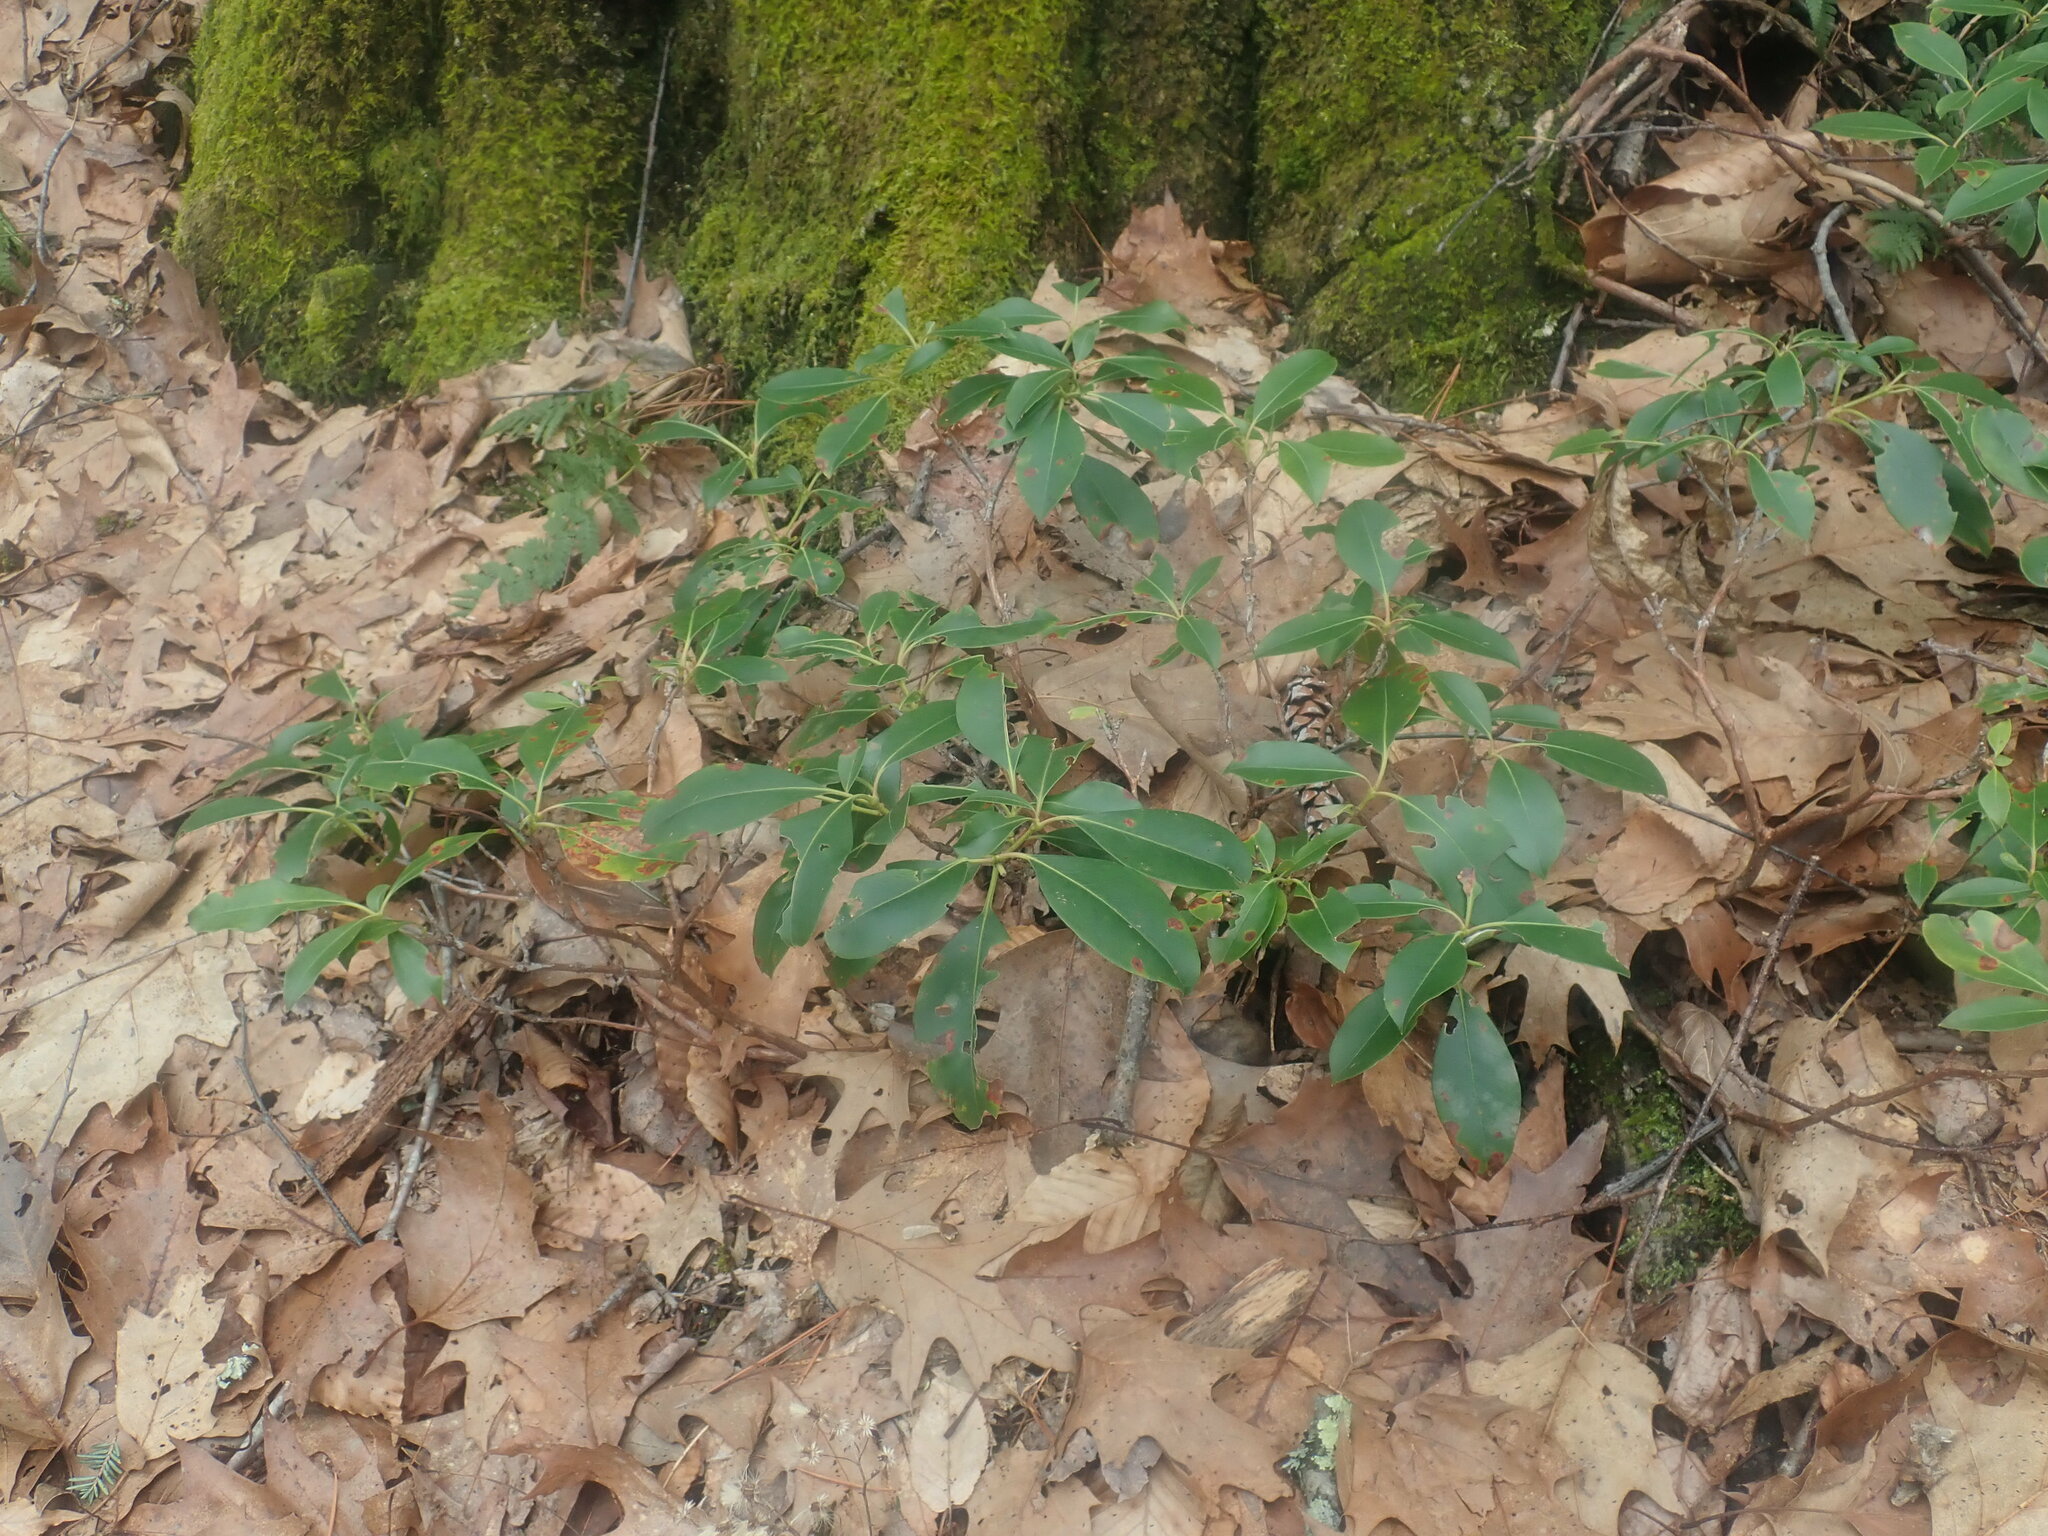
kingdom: Plantae
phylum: Tracheophyta
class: Magnoliopsida
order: Ericales
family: Ericaceae
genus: Kalmia
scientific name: Kalmia latifolia
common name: Mountain-laurel
